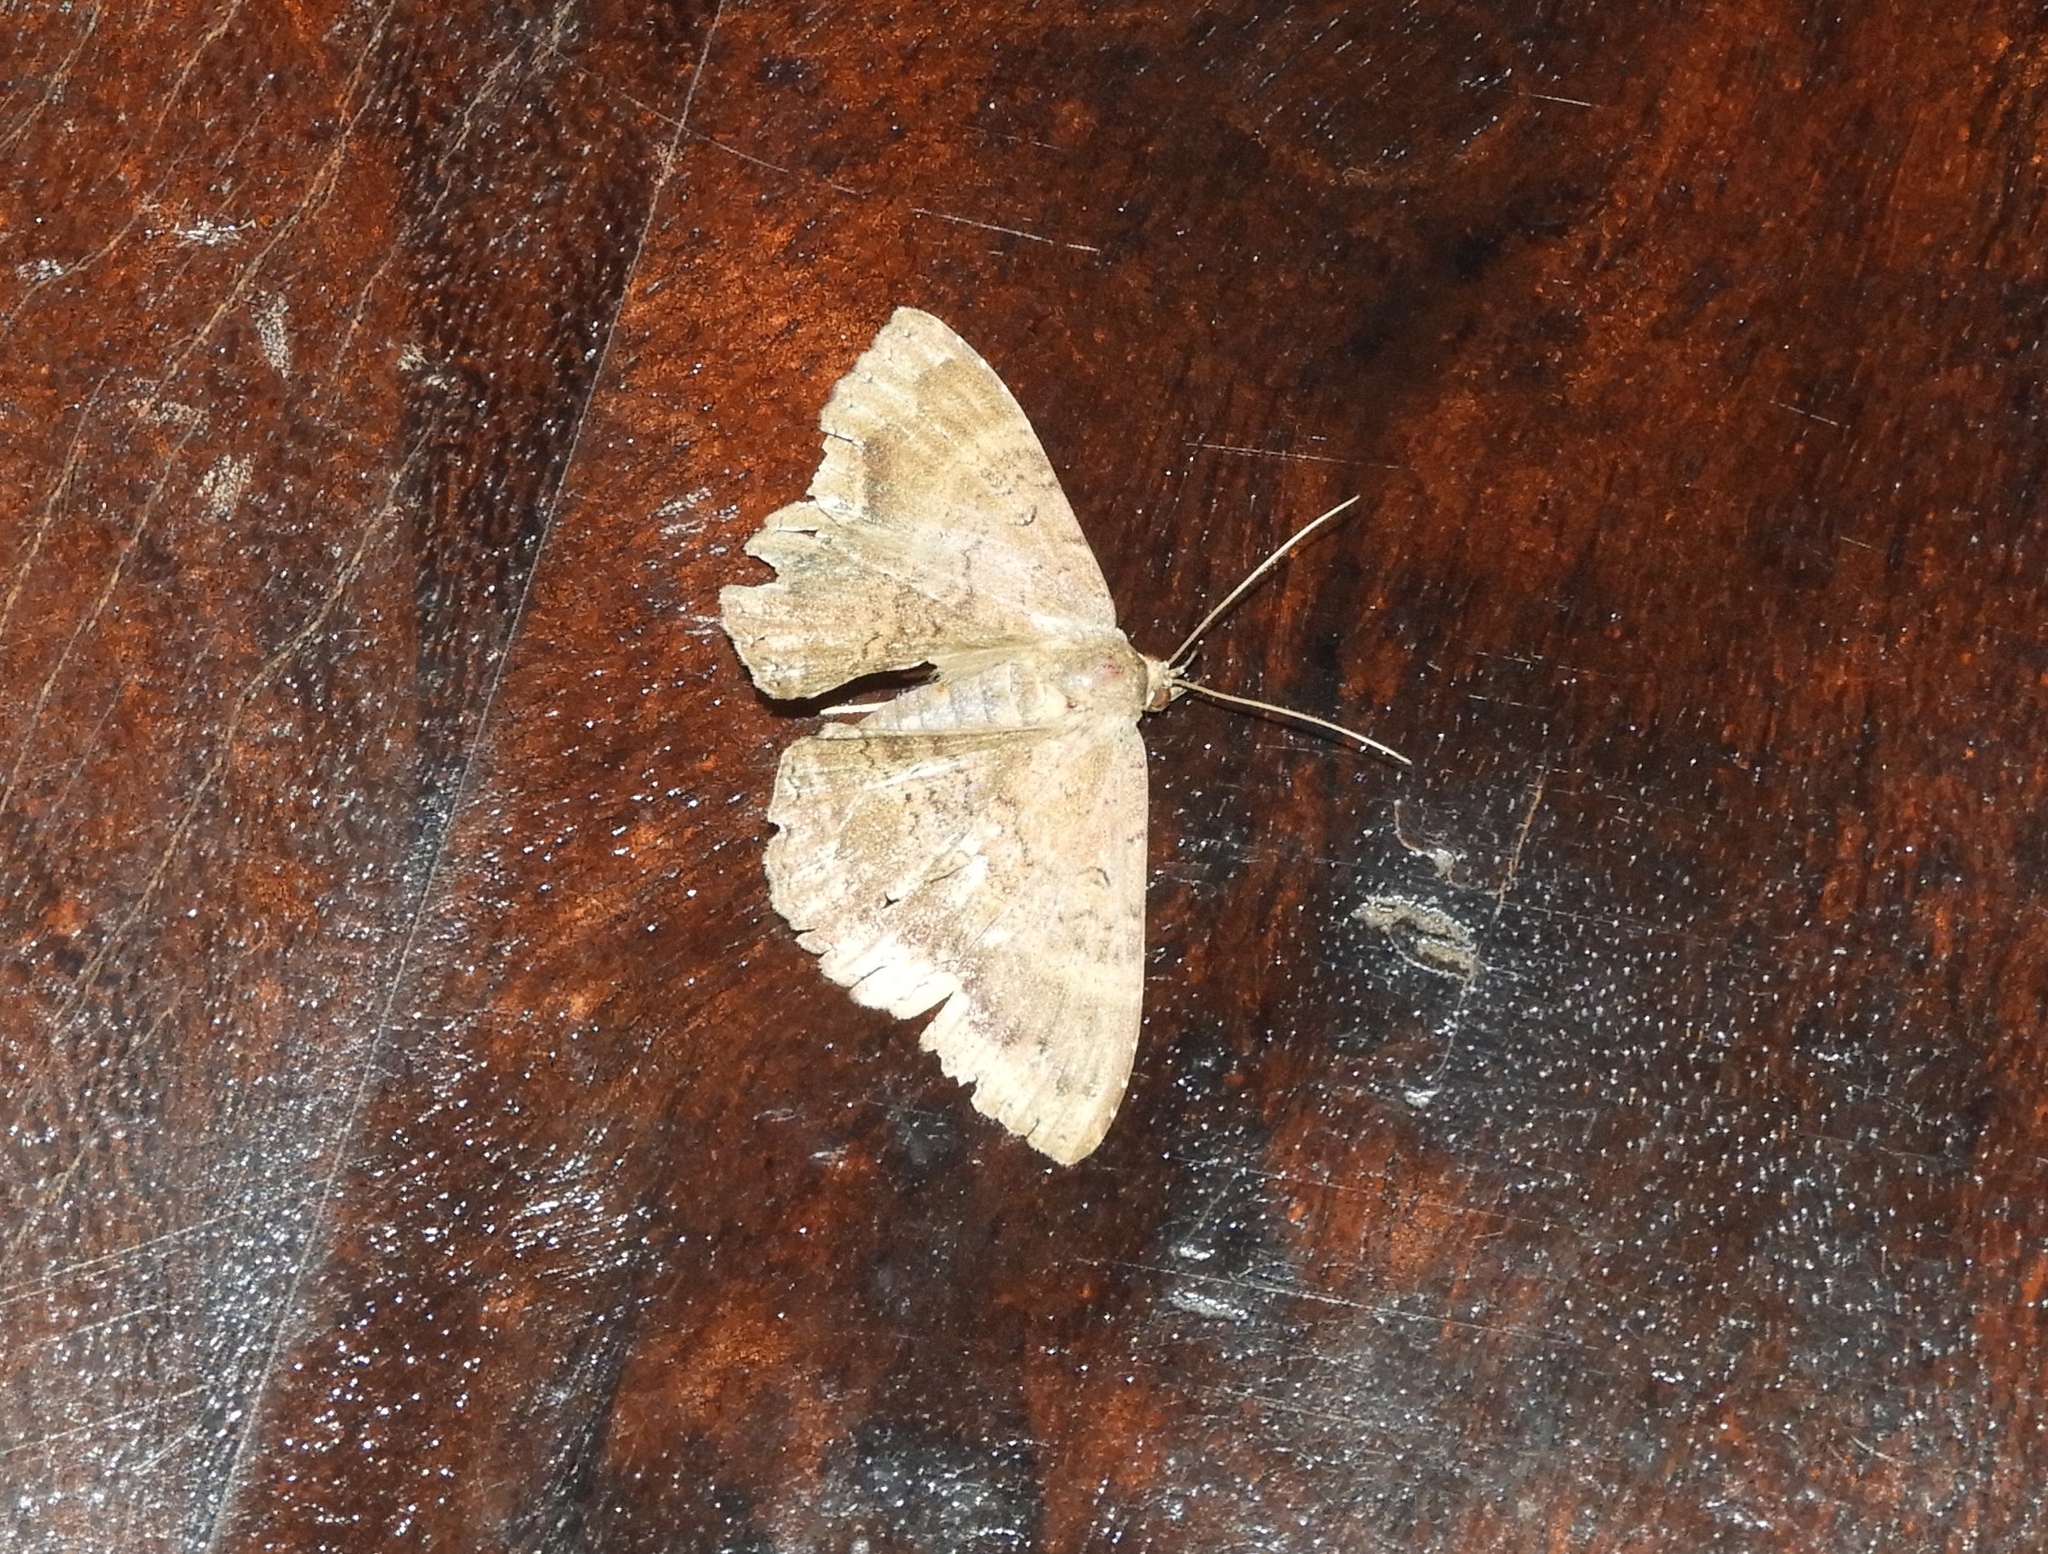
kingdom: Animalia
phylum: Arthropoda
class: Insecta
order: Lepidoptera
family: Erebidae
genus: Letis
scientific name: Letis
